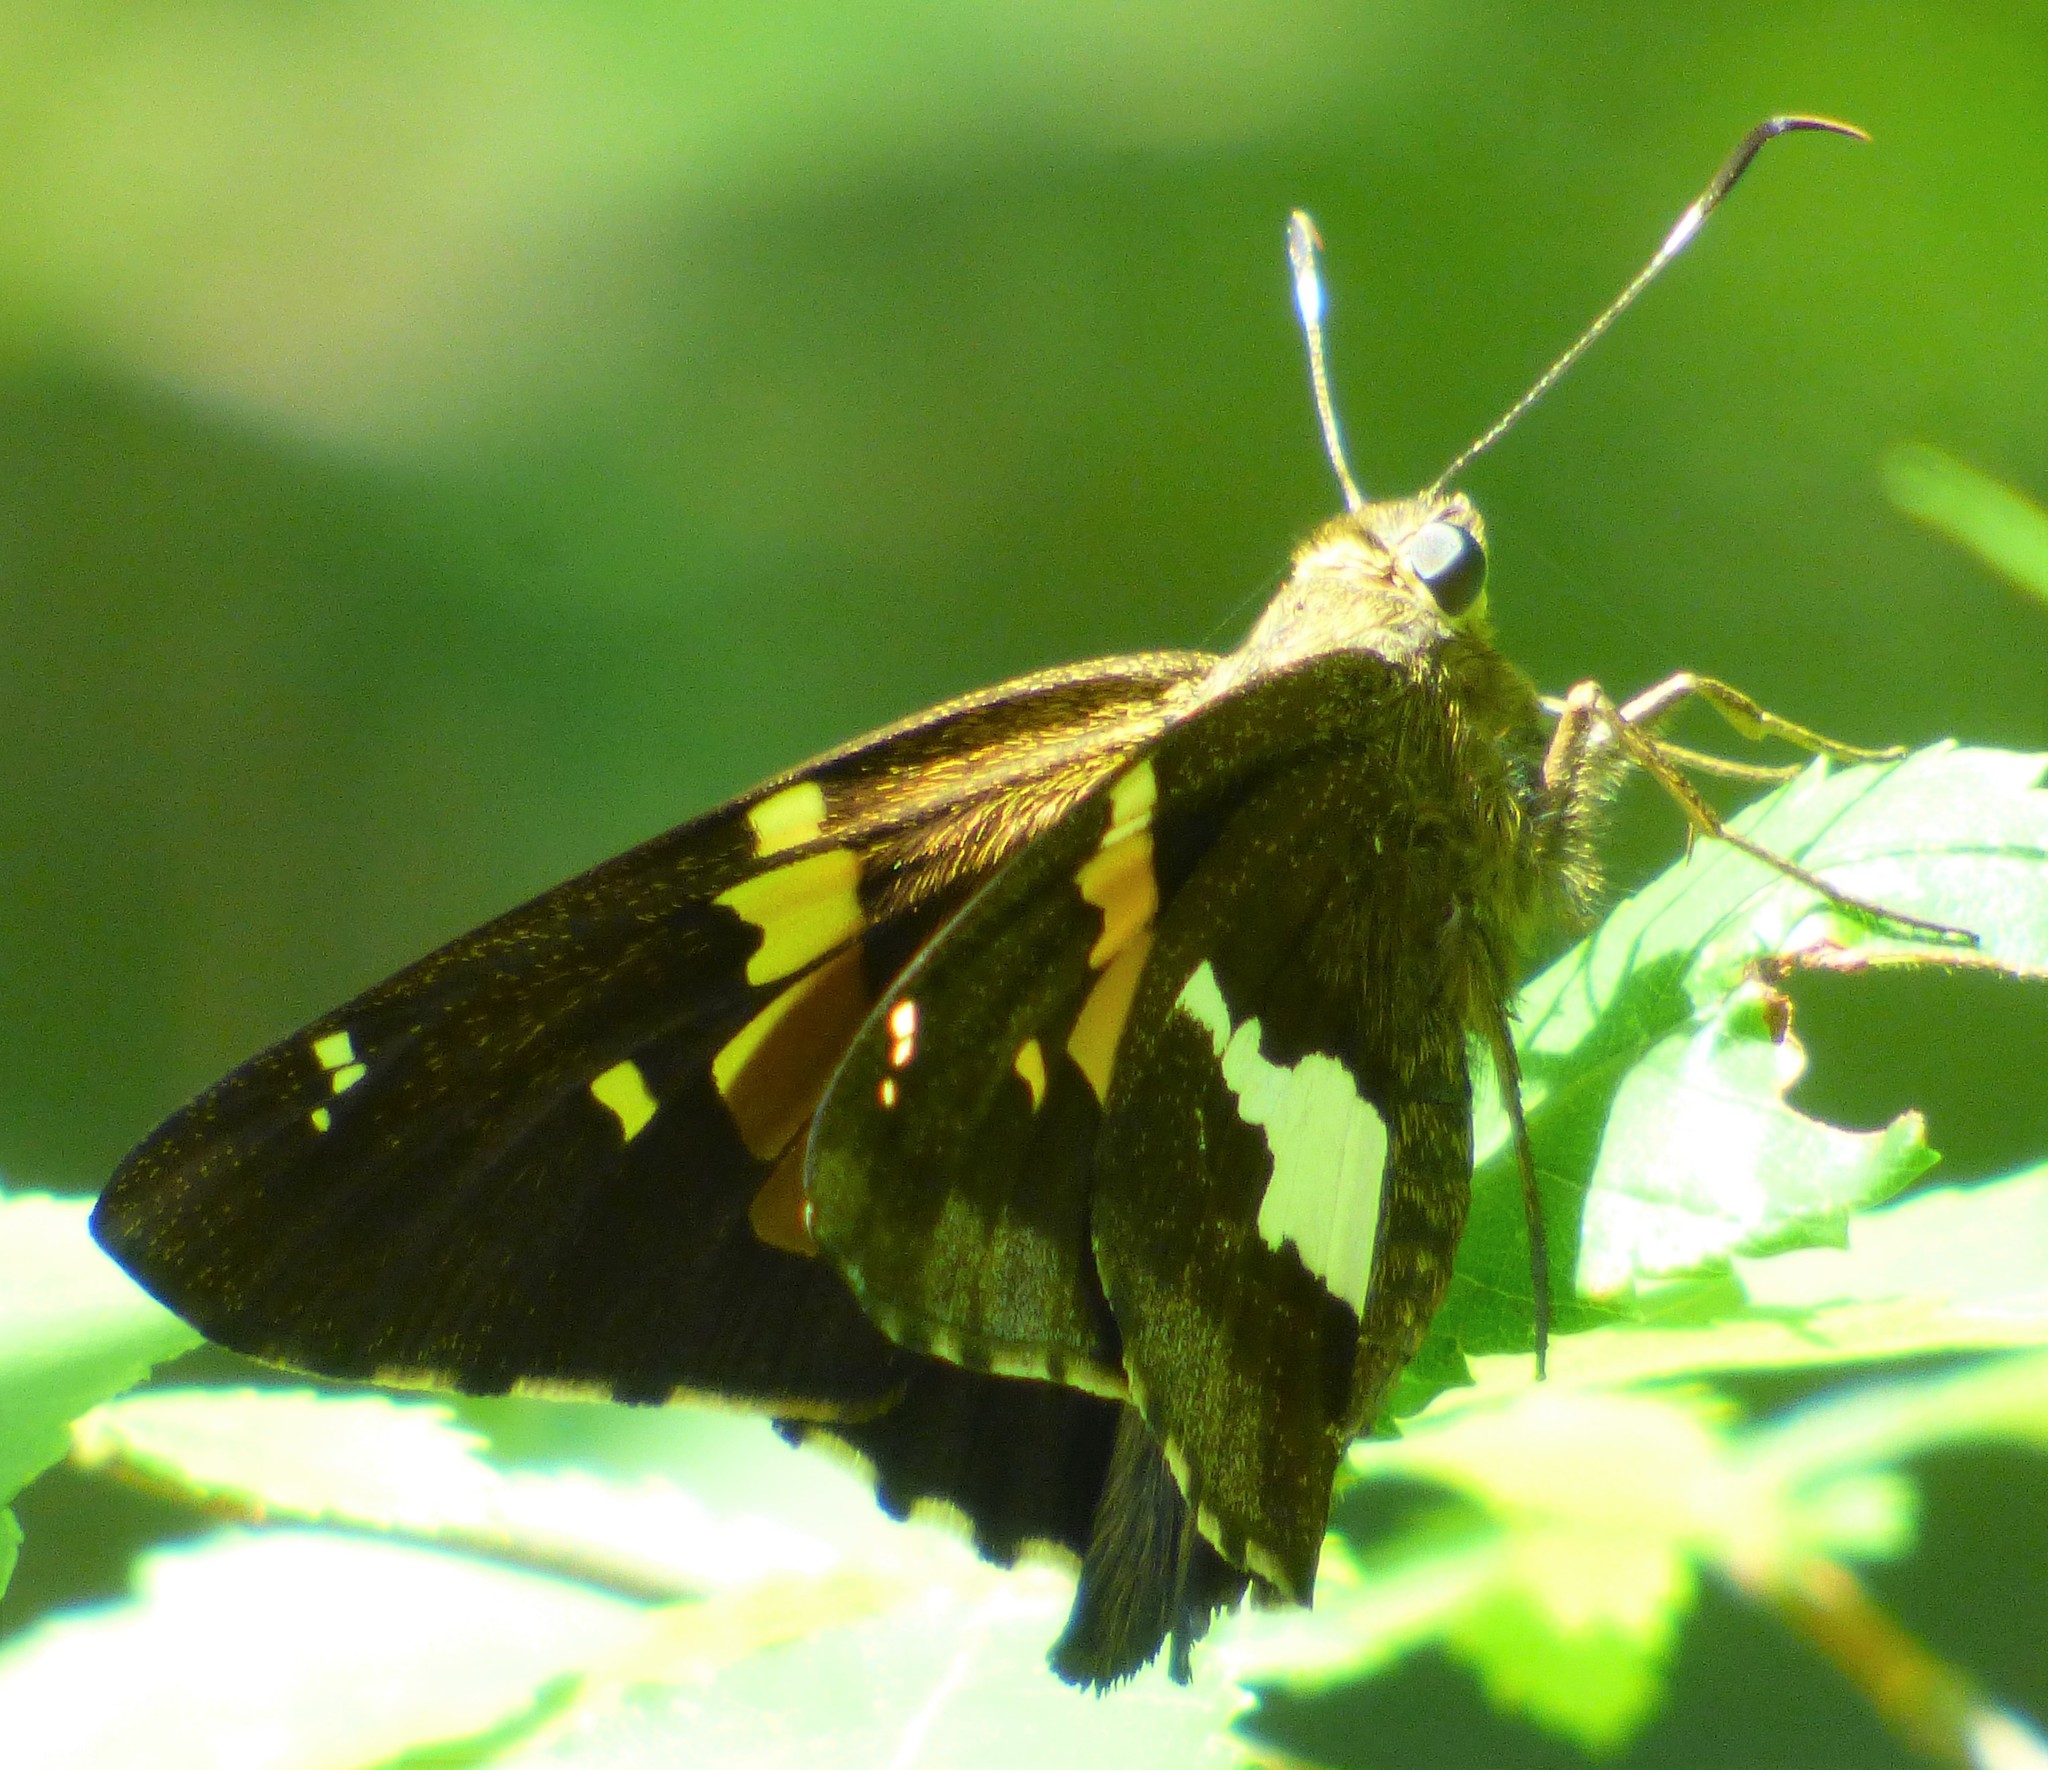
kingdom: Animalia
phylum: Arthropoda
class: Insecta
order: Lepidoptera
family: Hesperiidae
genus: Epargyreus
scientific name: Epargyreus clarus
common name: Silver-spotted skipper
